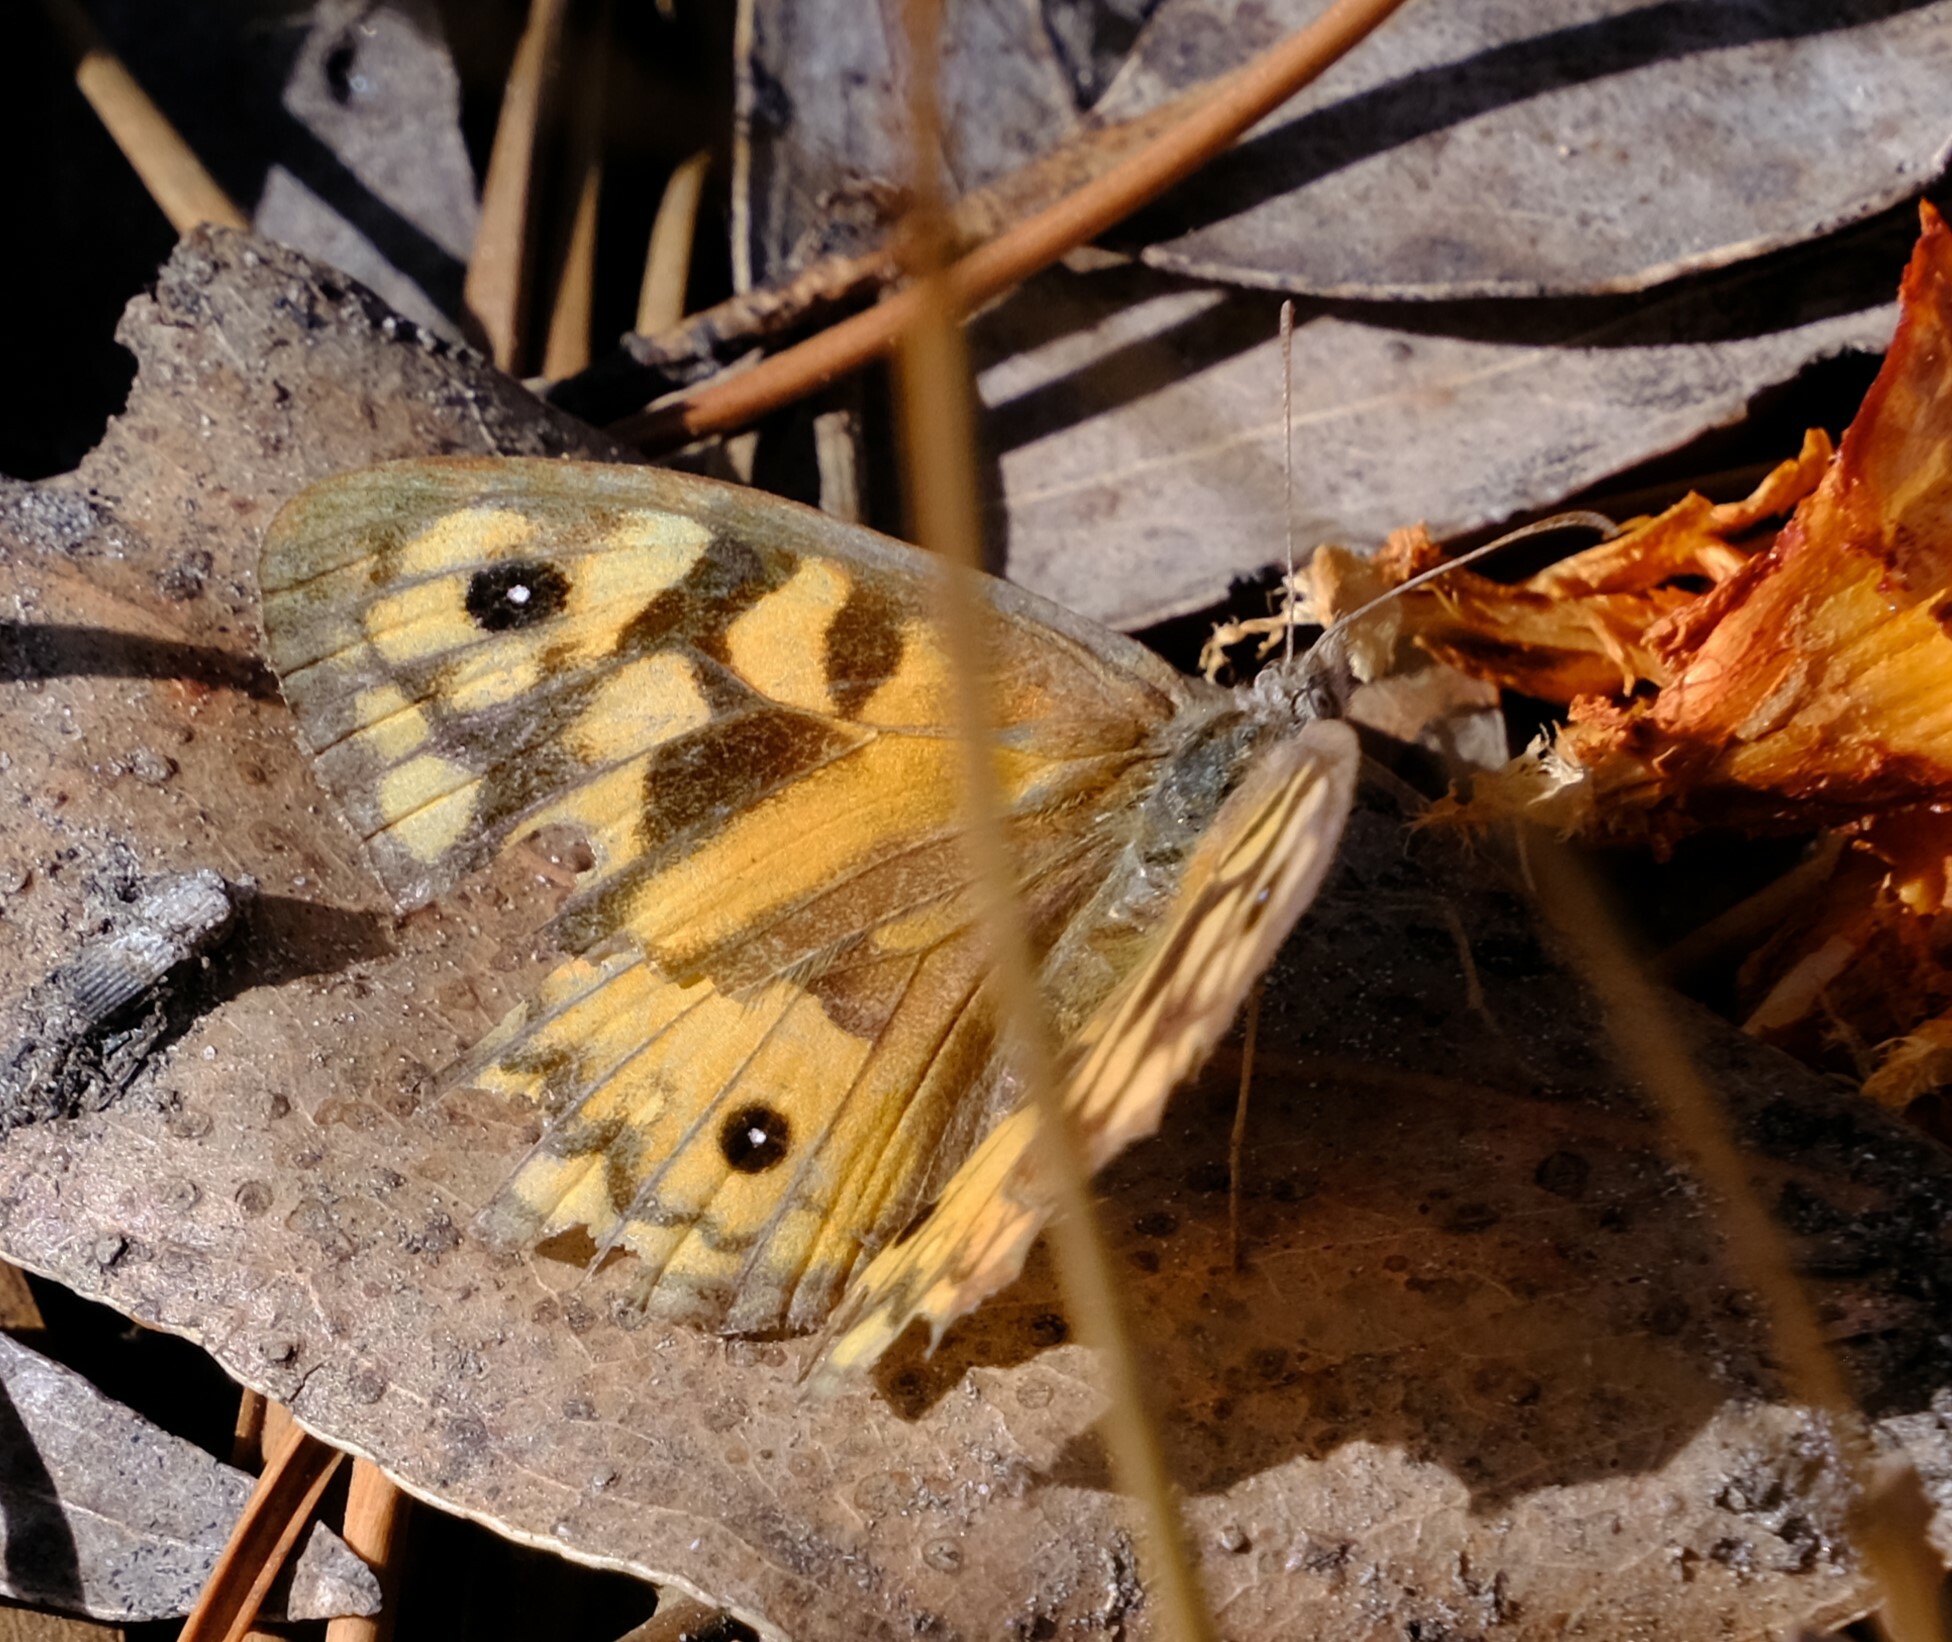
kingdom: Animalia
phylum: Arthropoda
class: Insecta
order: Lepidoptera
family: Nymphalidae
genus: Geitoneura
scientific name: Geitoneura klugii
